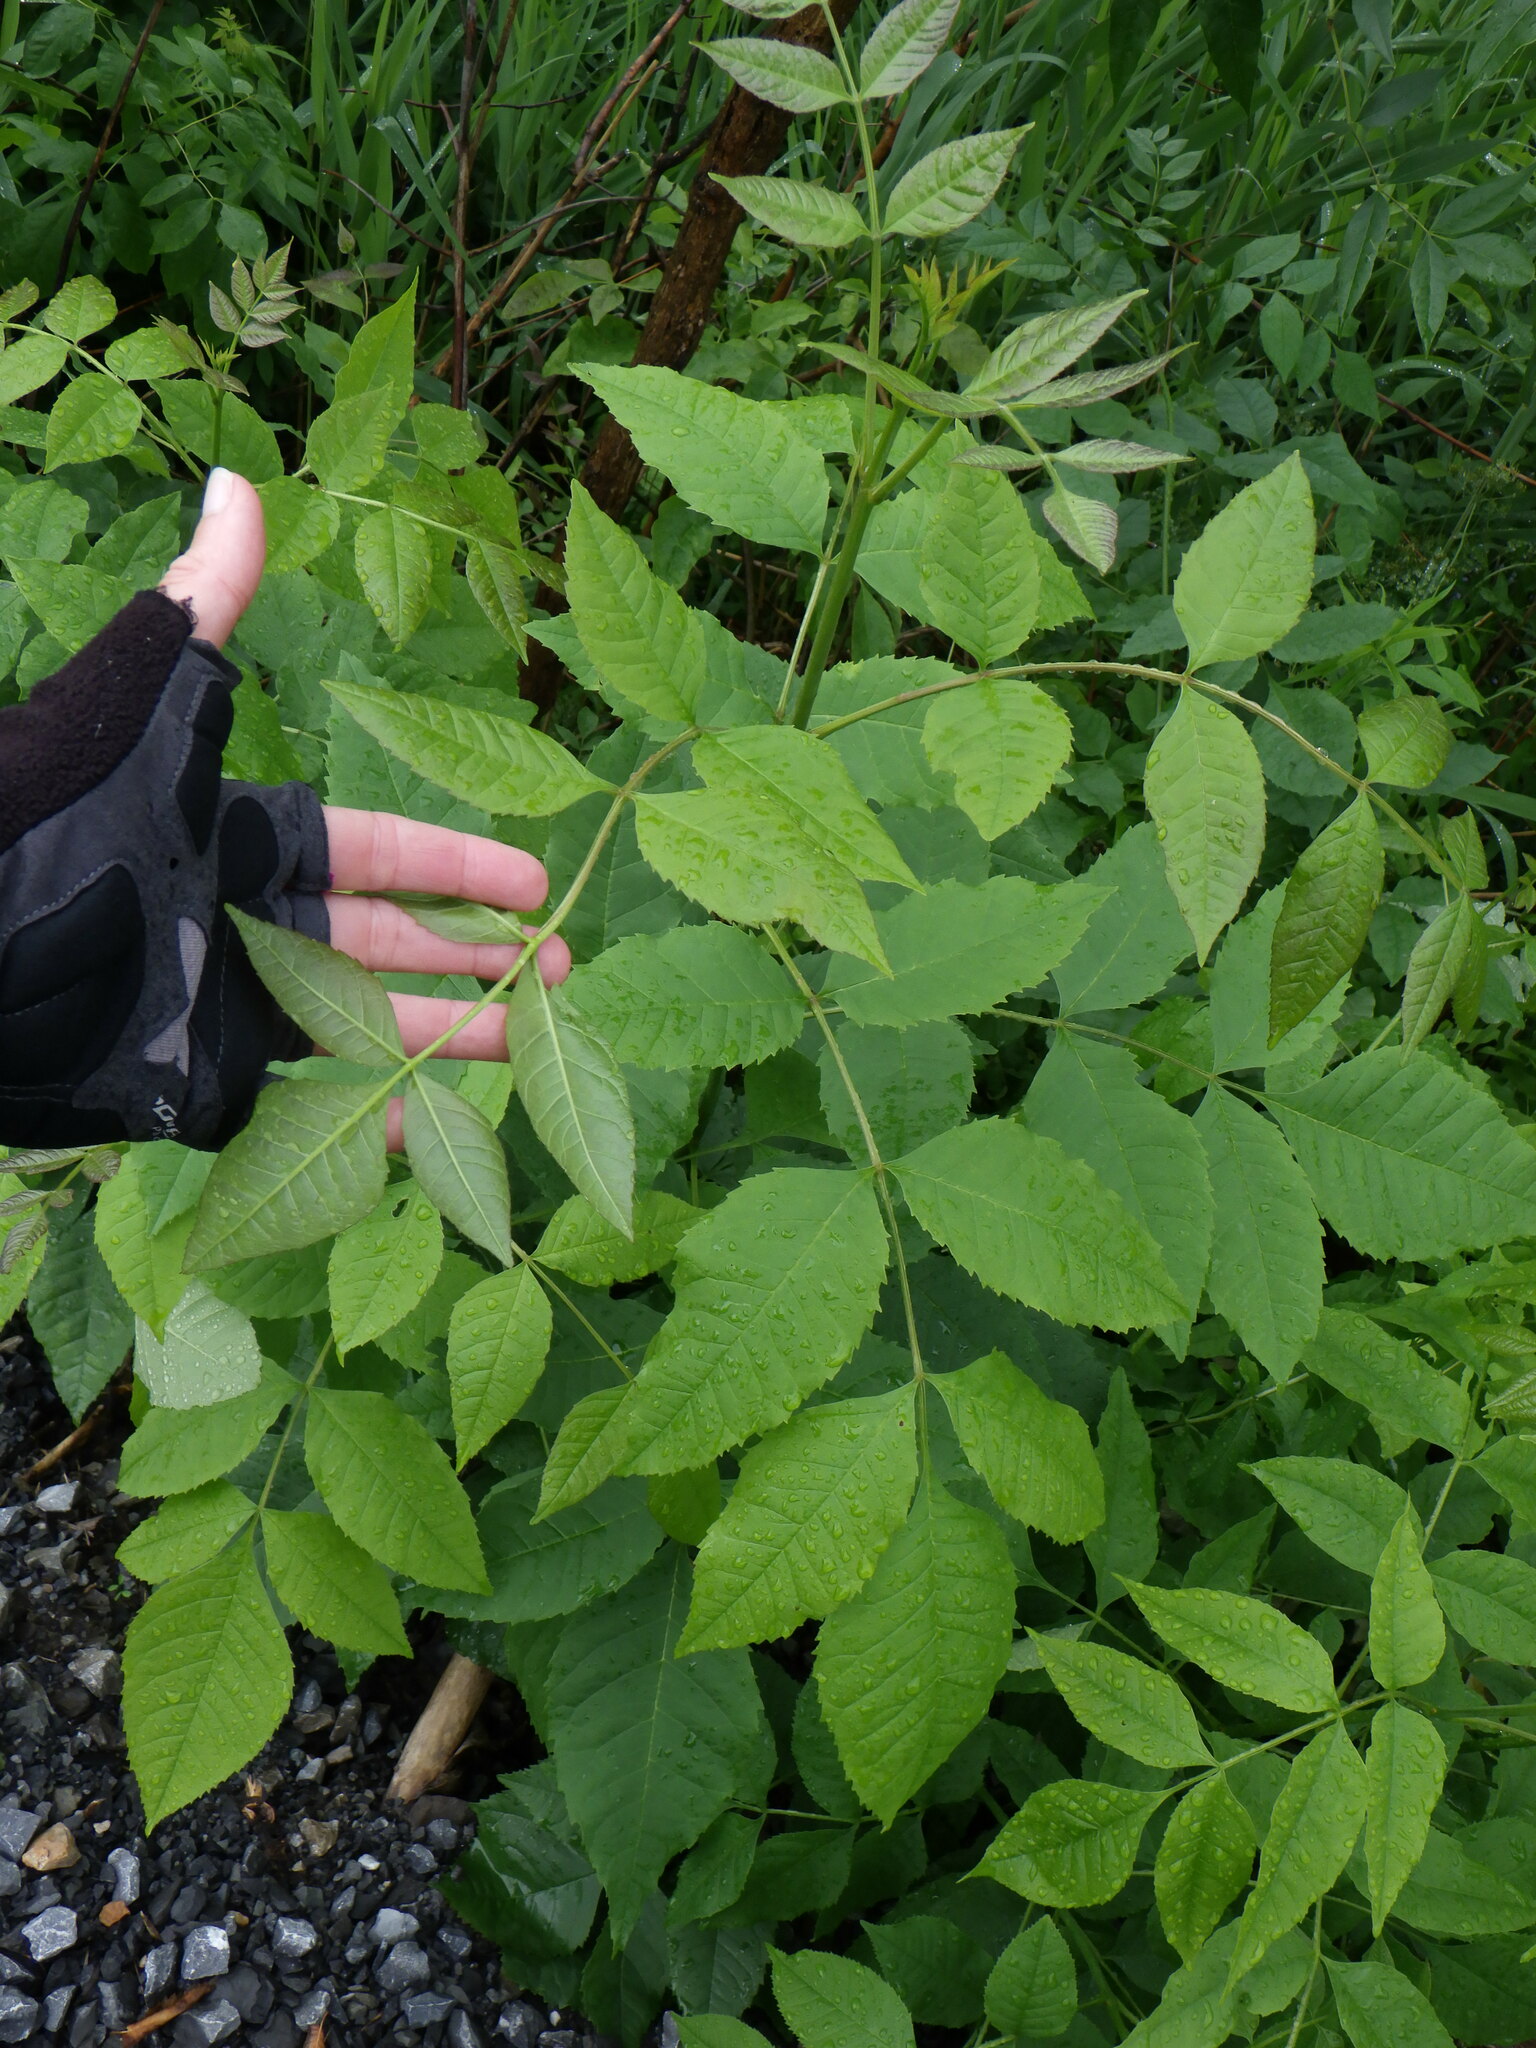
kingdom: Plantae
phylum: Tracheophyta
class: Magnoliopsida
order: Lamiales
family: Oleaceae
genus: Fraxinus
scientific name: Fraxinus pennsylvanica
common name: Green ash
